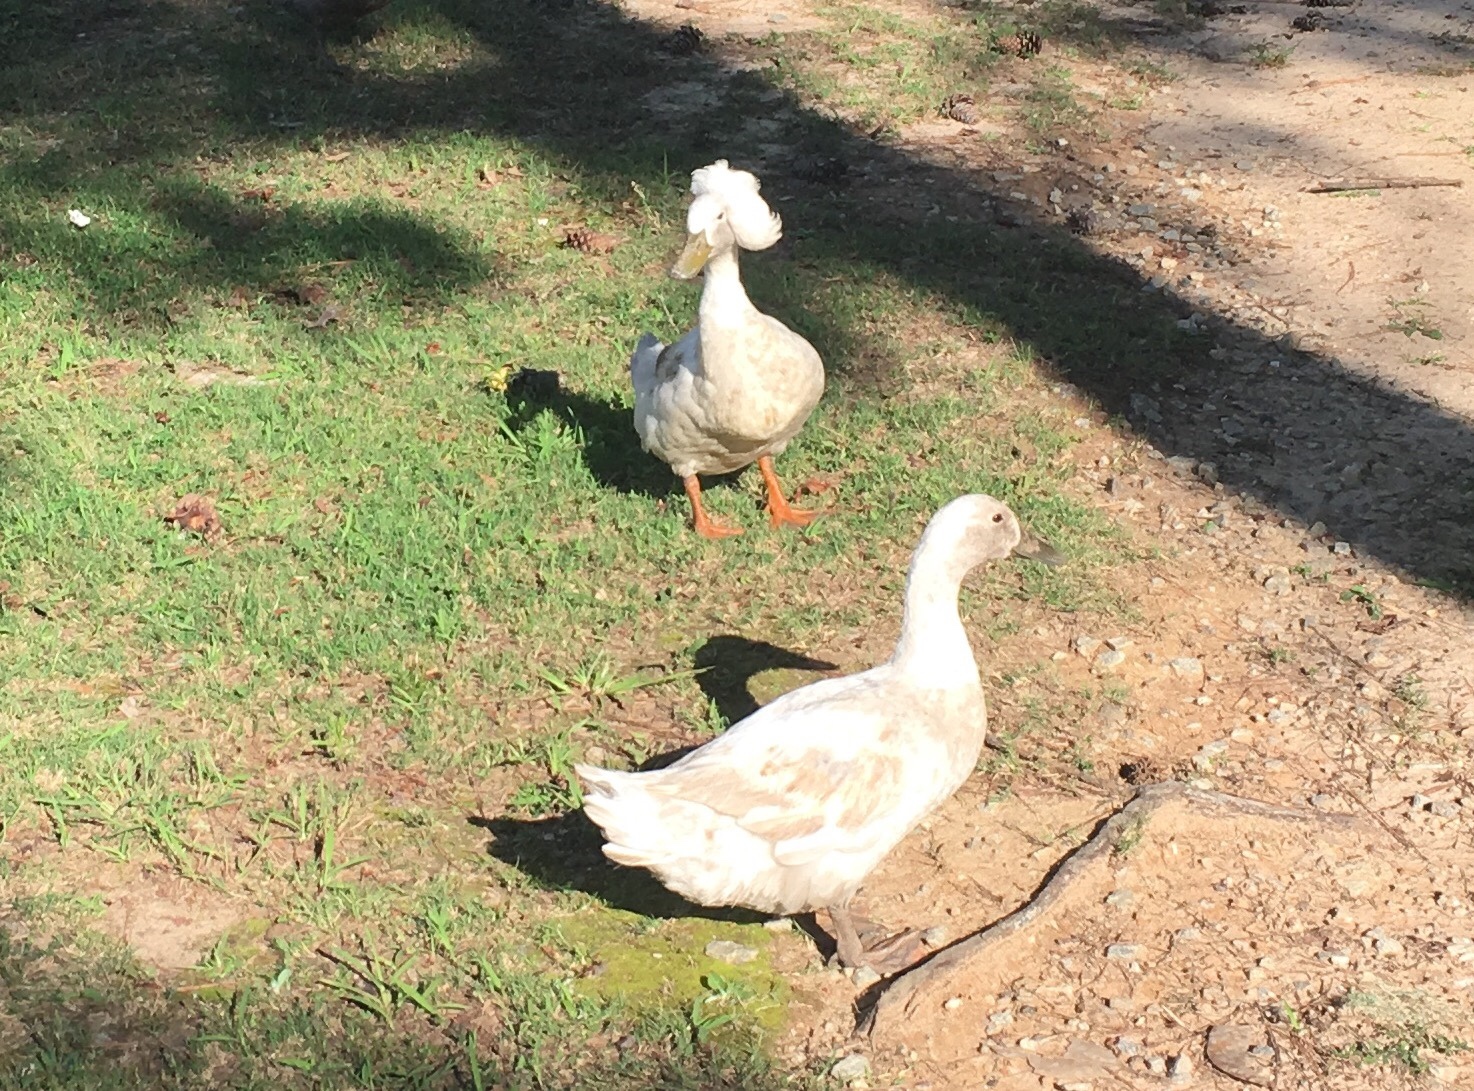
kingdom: Animalia
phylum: Chordata
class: Aves
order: Anseriformes
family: Anatidae
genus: Anas
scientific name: Anas platyrhynchos
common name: Mallard
